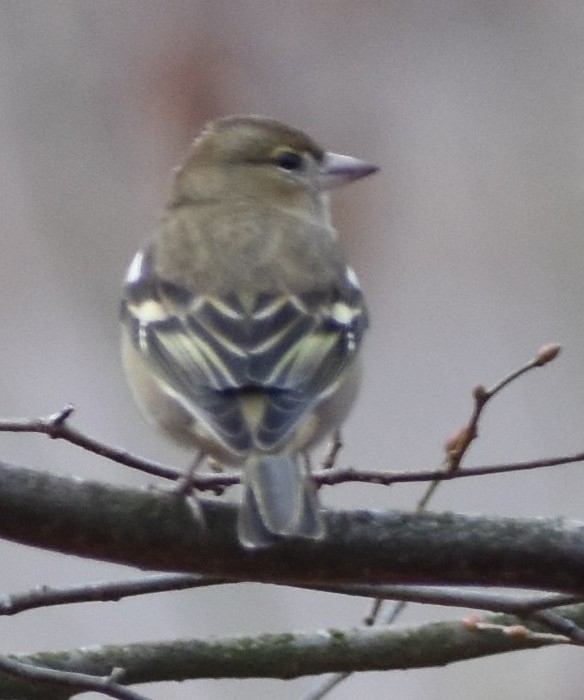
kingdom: Animalia
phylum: Chordata
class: Aves
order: Passeriformes
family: Fringillidae
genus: Fringilla
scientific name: Fringilla coelebs
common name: Common chaffinch
